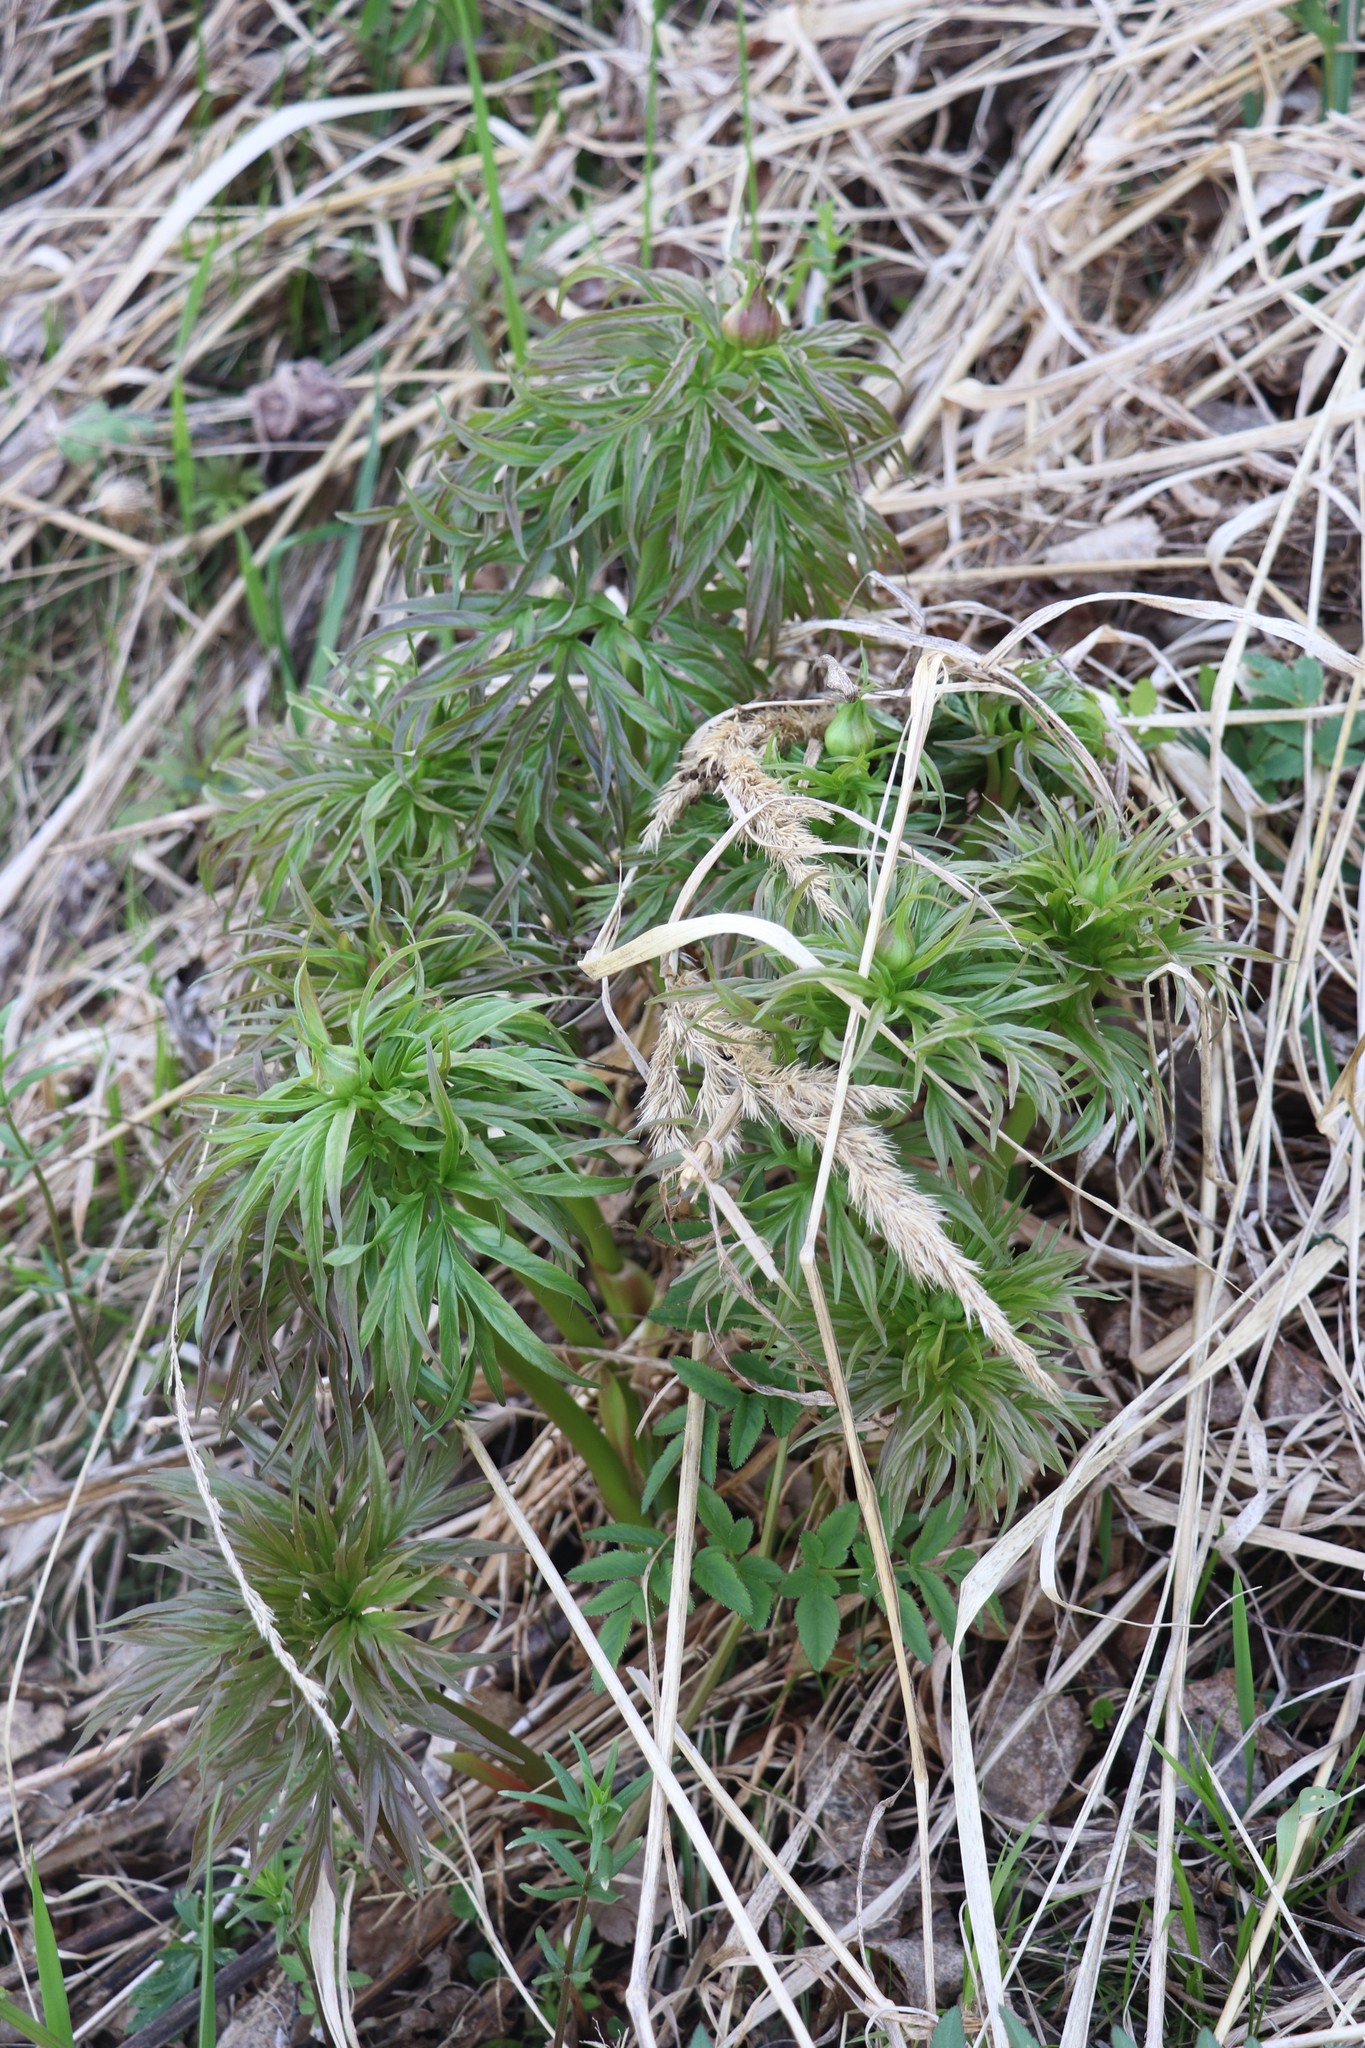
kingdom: Plantae
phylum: Tracheophyta
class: Magnoliopsida
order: Saxifragales
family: Paeoniaceae
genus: Paeonia
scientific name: Paeonia anomala
